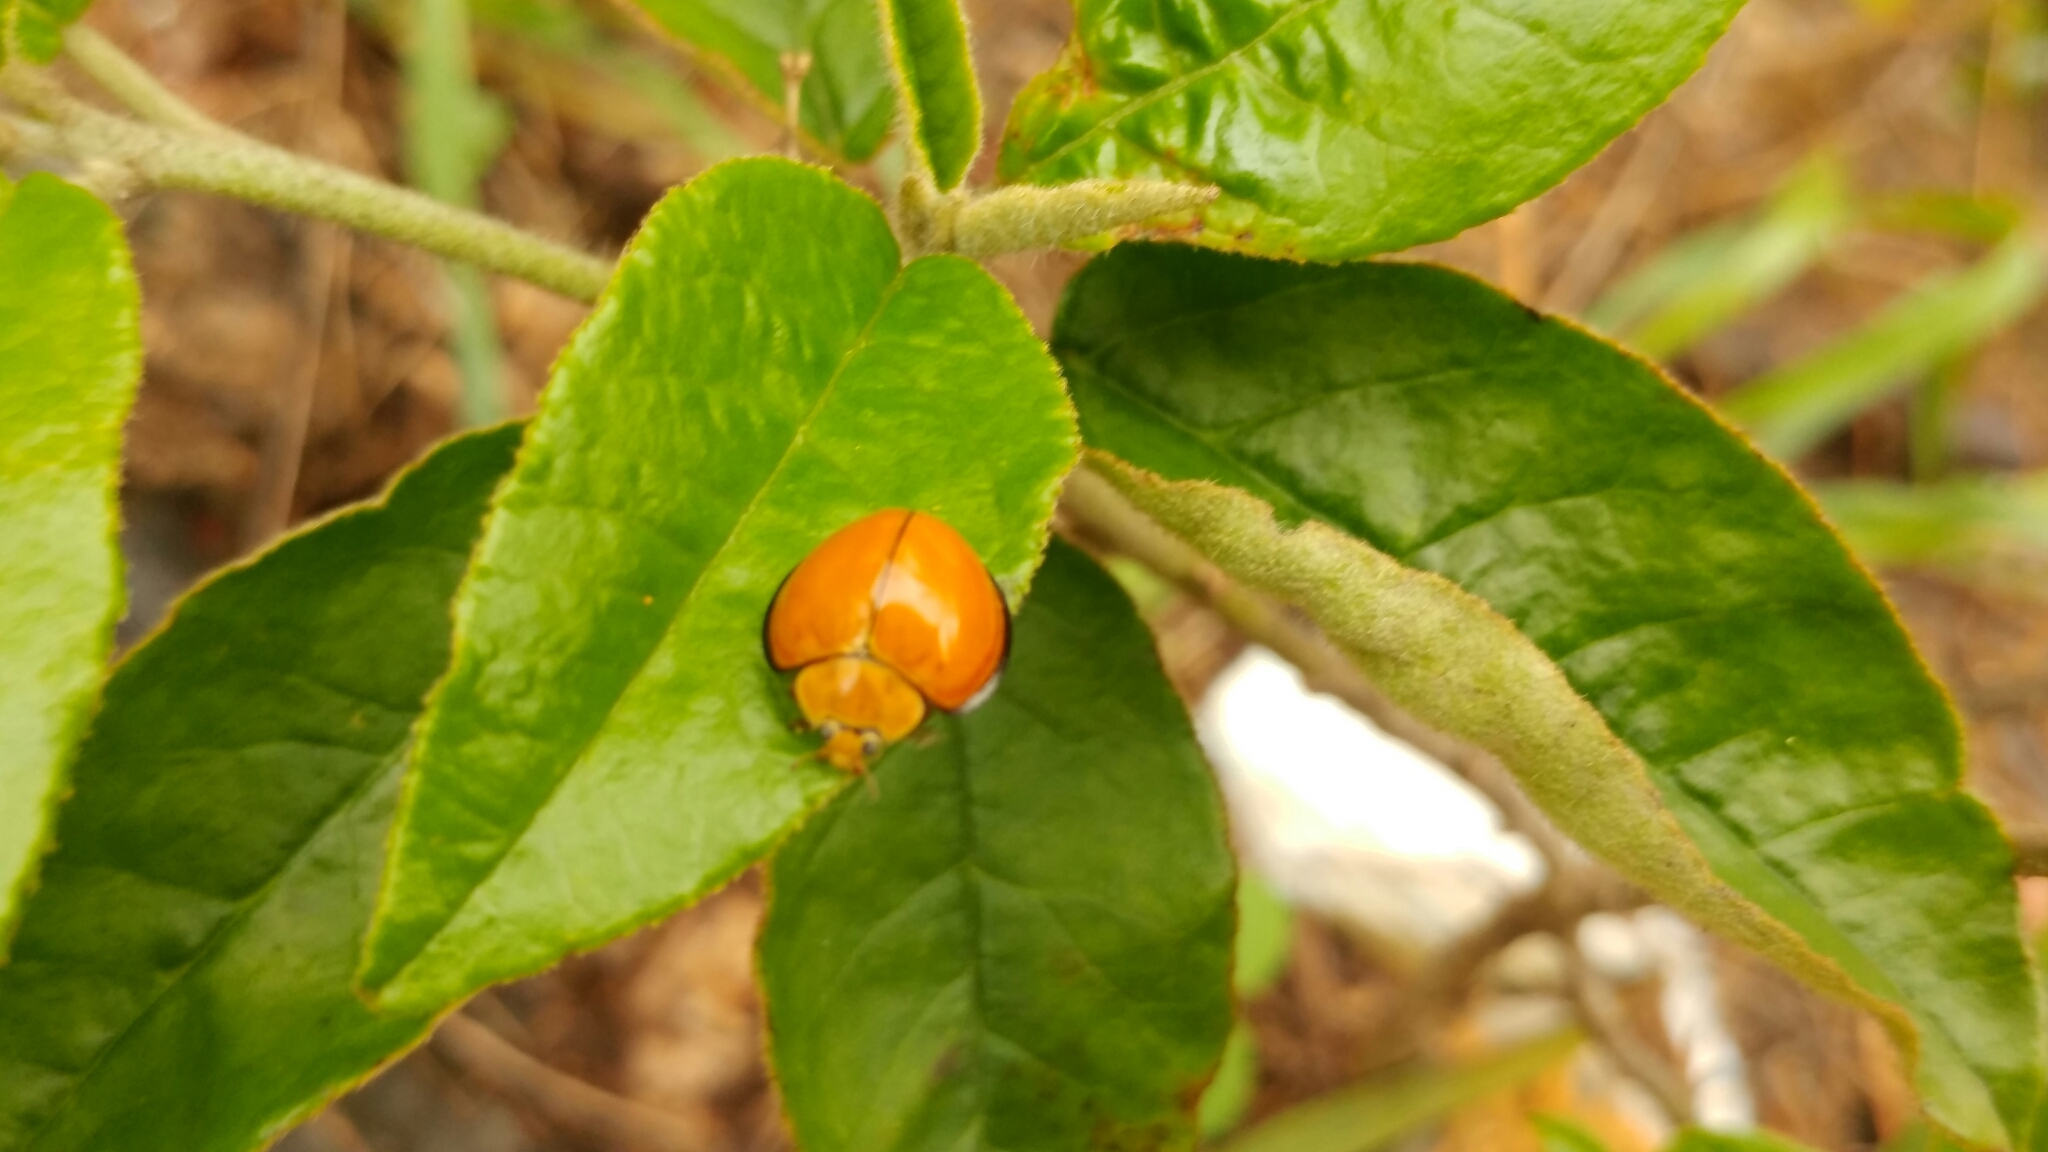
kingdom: Animalia
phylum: Arthropoda
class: Insecta
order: Coleoptera
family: Coccinellidae
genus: Neda
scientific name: Neda
